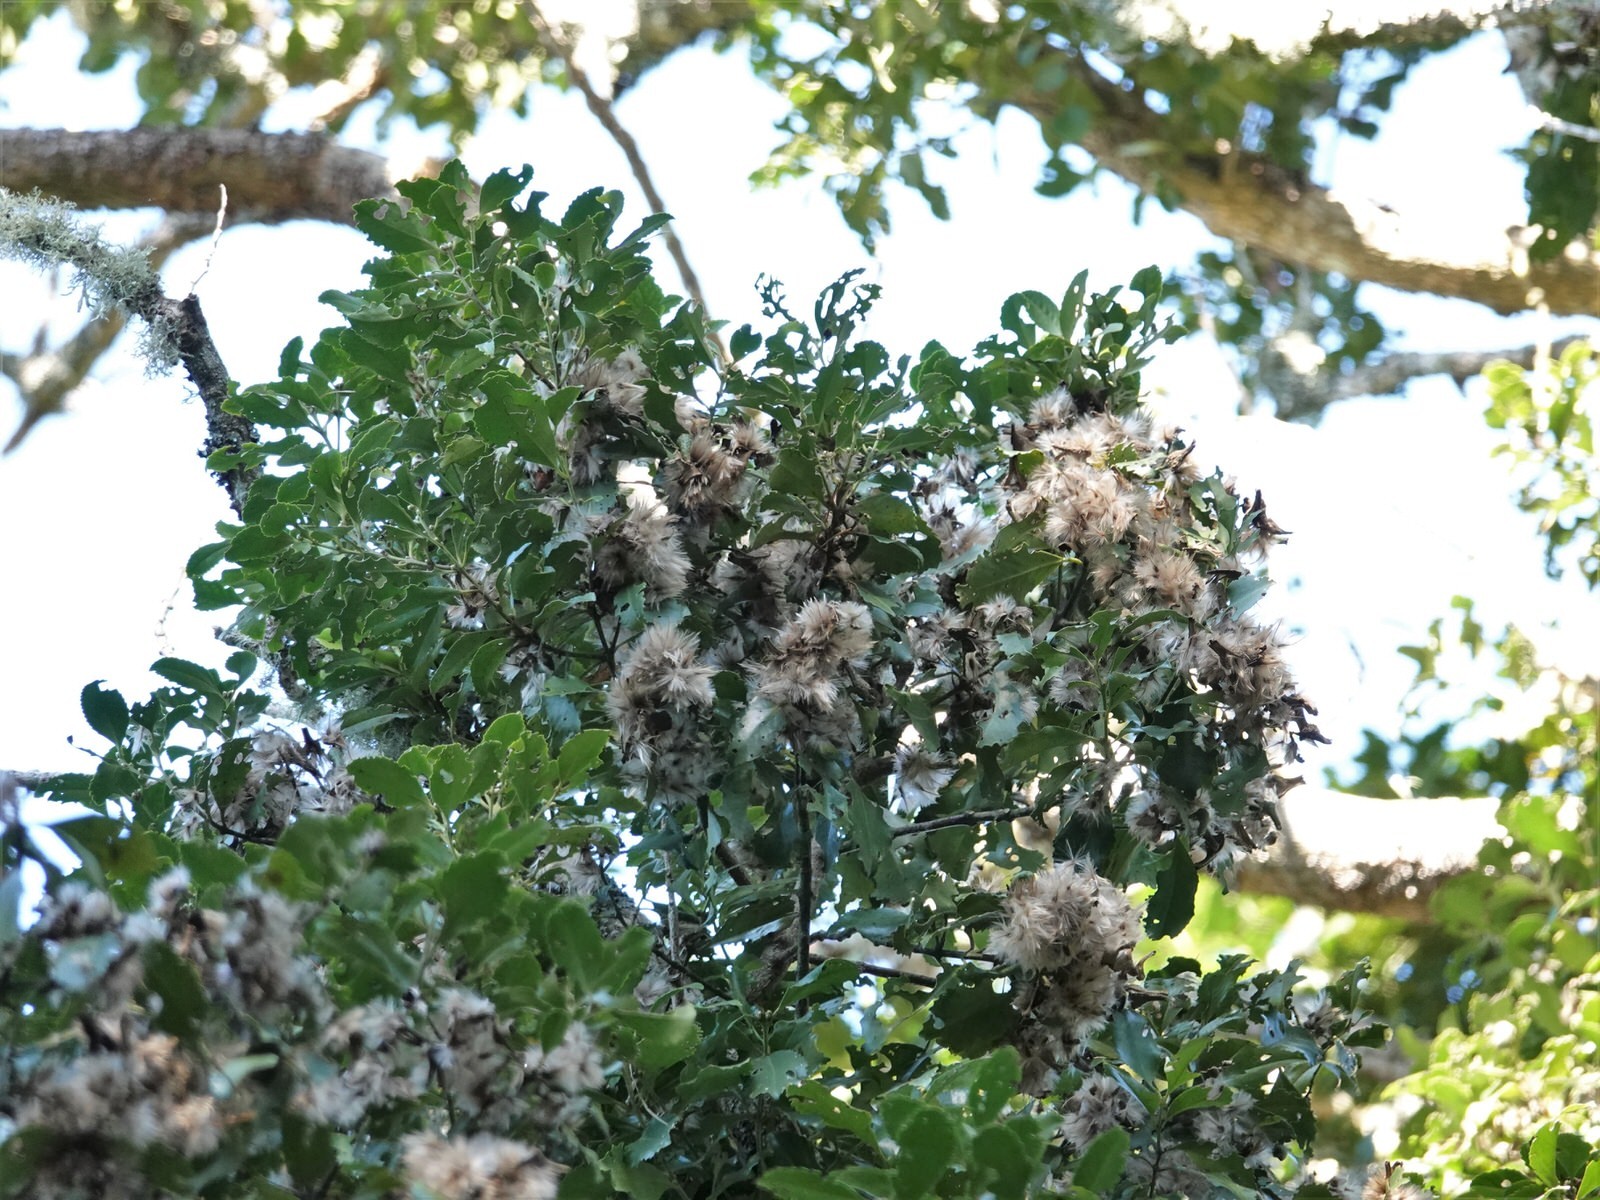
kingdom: Plantae
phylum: Tracheophyta
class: Magnoliopsida
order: Laurales
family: Atherospermataceae
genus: Laurelia
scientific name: Laurelia novae-zelandiae
